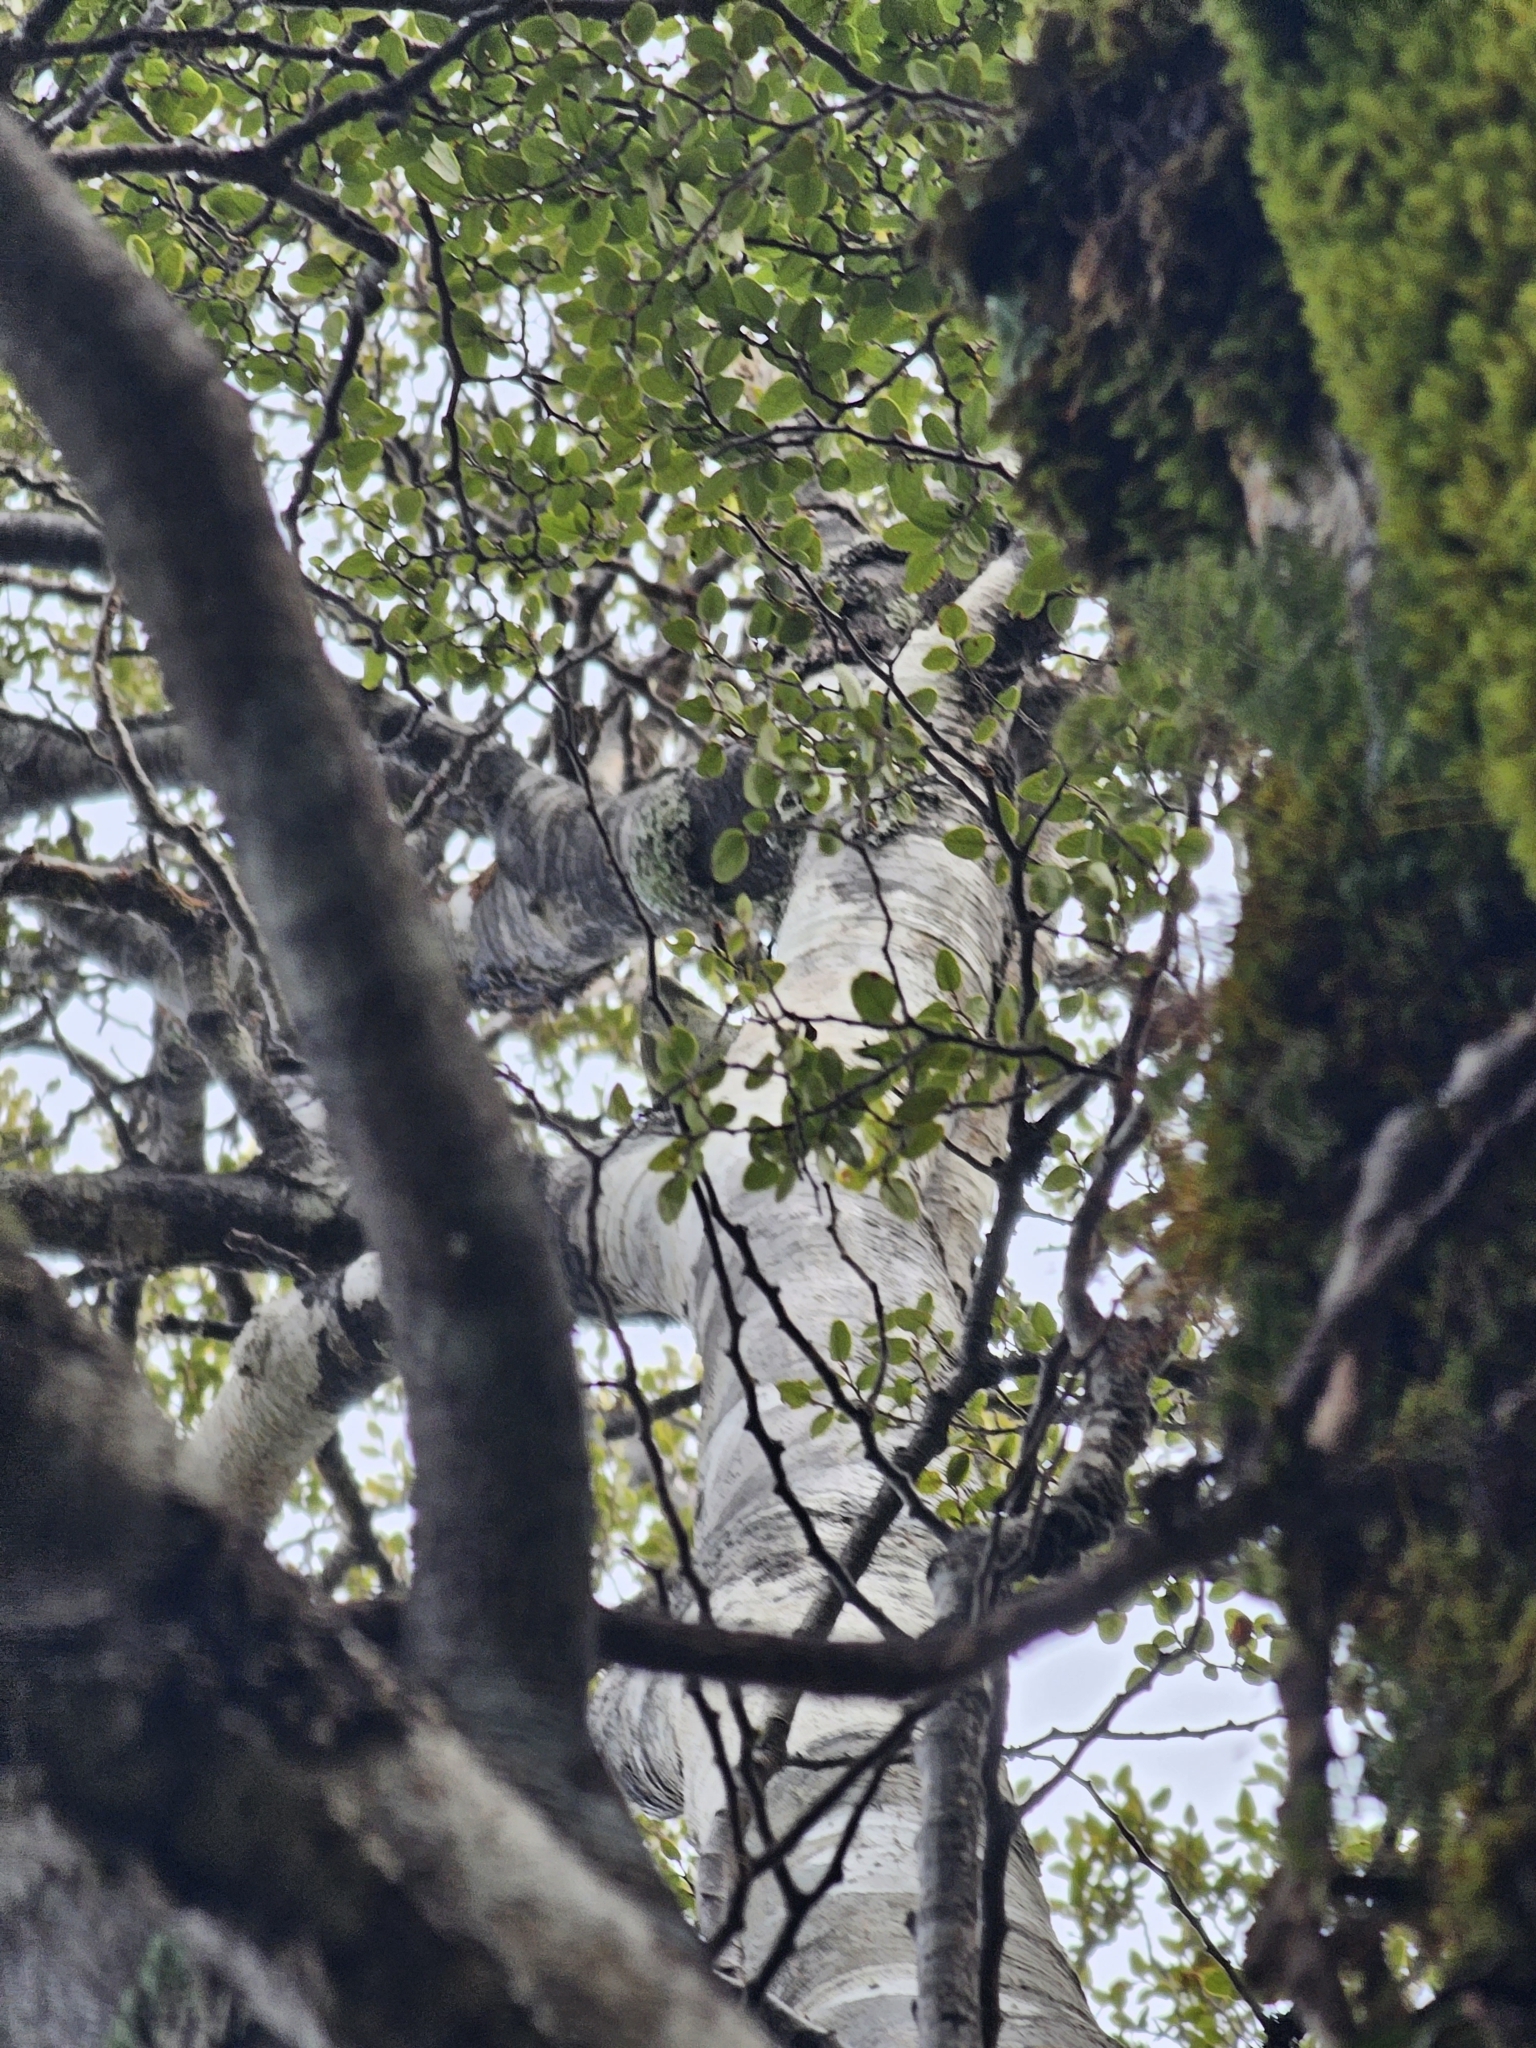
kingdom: Animalia
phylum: Chordata
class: Aves
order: Passeriformes
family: Acanthisittidae
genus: Acanthisitta
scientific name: Acanthisitta chloris
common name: Rifleman
